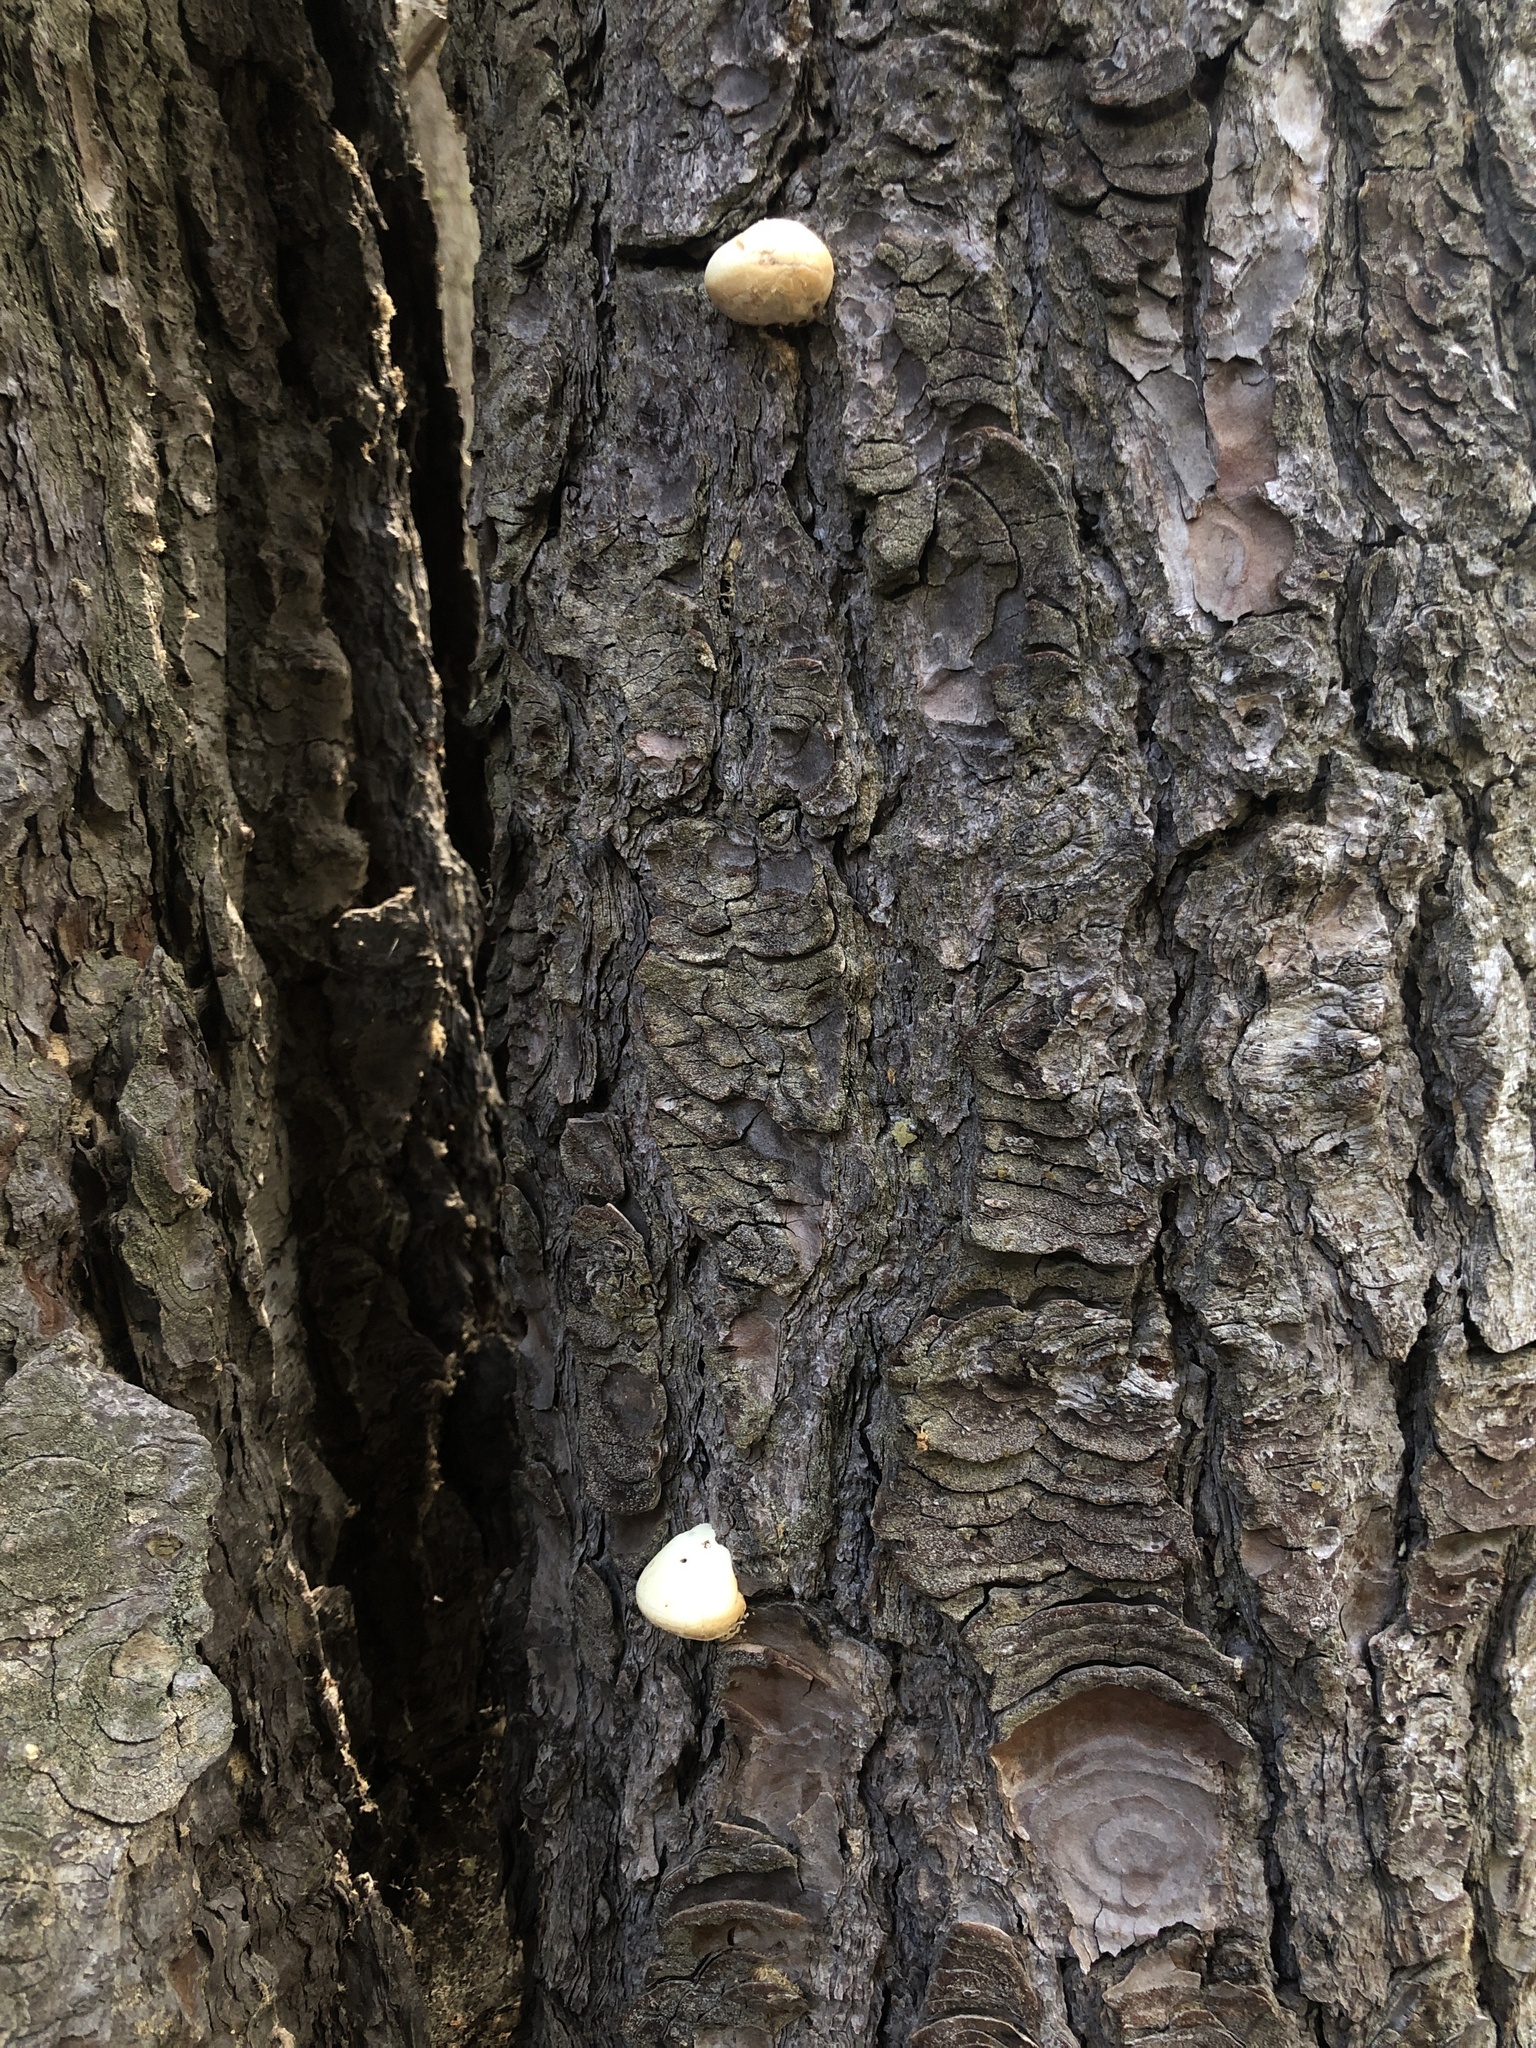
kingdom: Fungi
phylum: Basidiomycota
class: Agaricomycetes
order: Polyporales
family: Polyporaceae
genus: Cryptoporus
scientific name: Cryptoporus volvatus
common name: Veiled polypore
